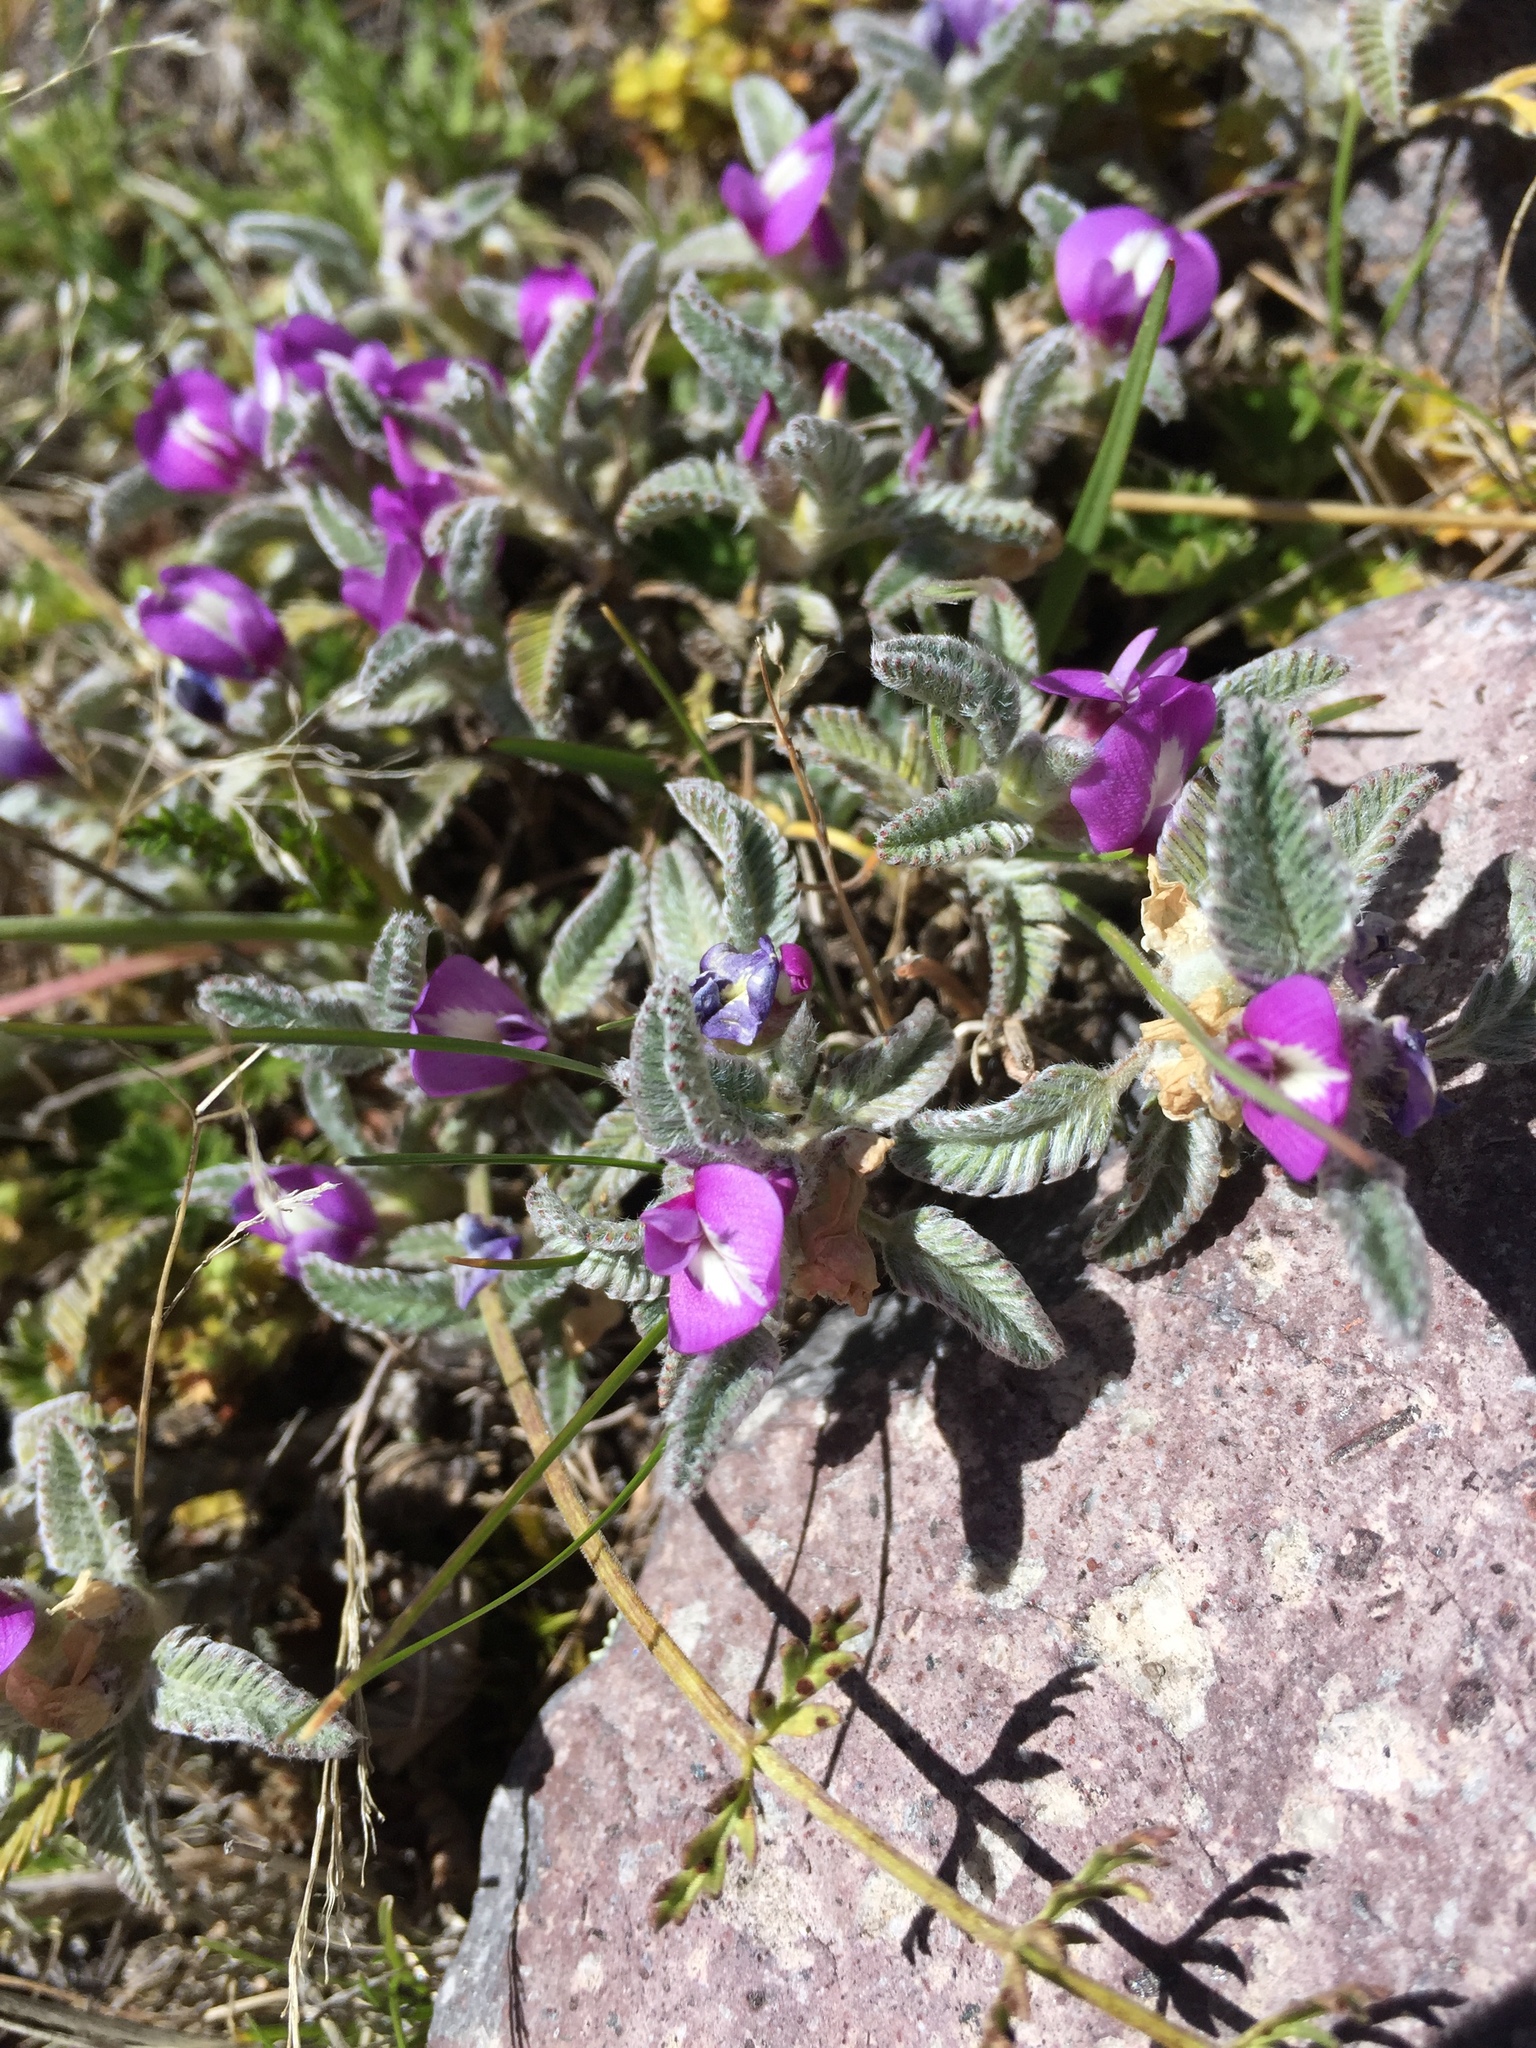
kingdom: Plantae
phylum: Tracheophyta
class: Magnoliopsida
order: Fabales
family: Fabaceae
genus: Astragalus
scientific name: Astragalus geminiflorus
